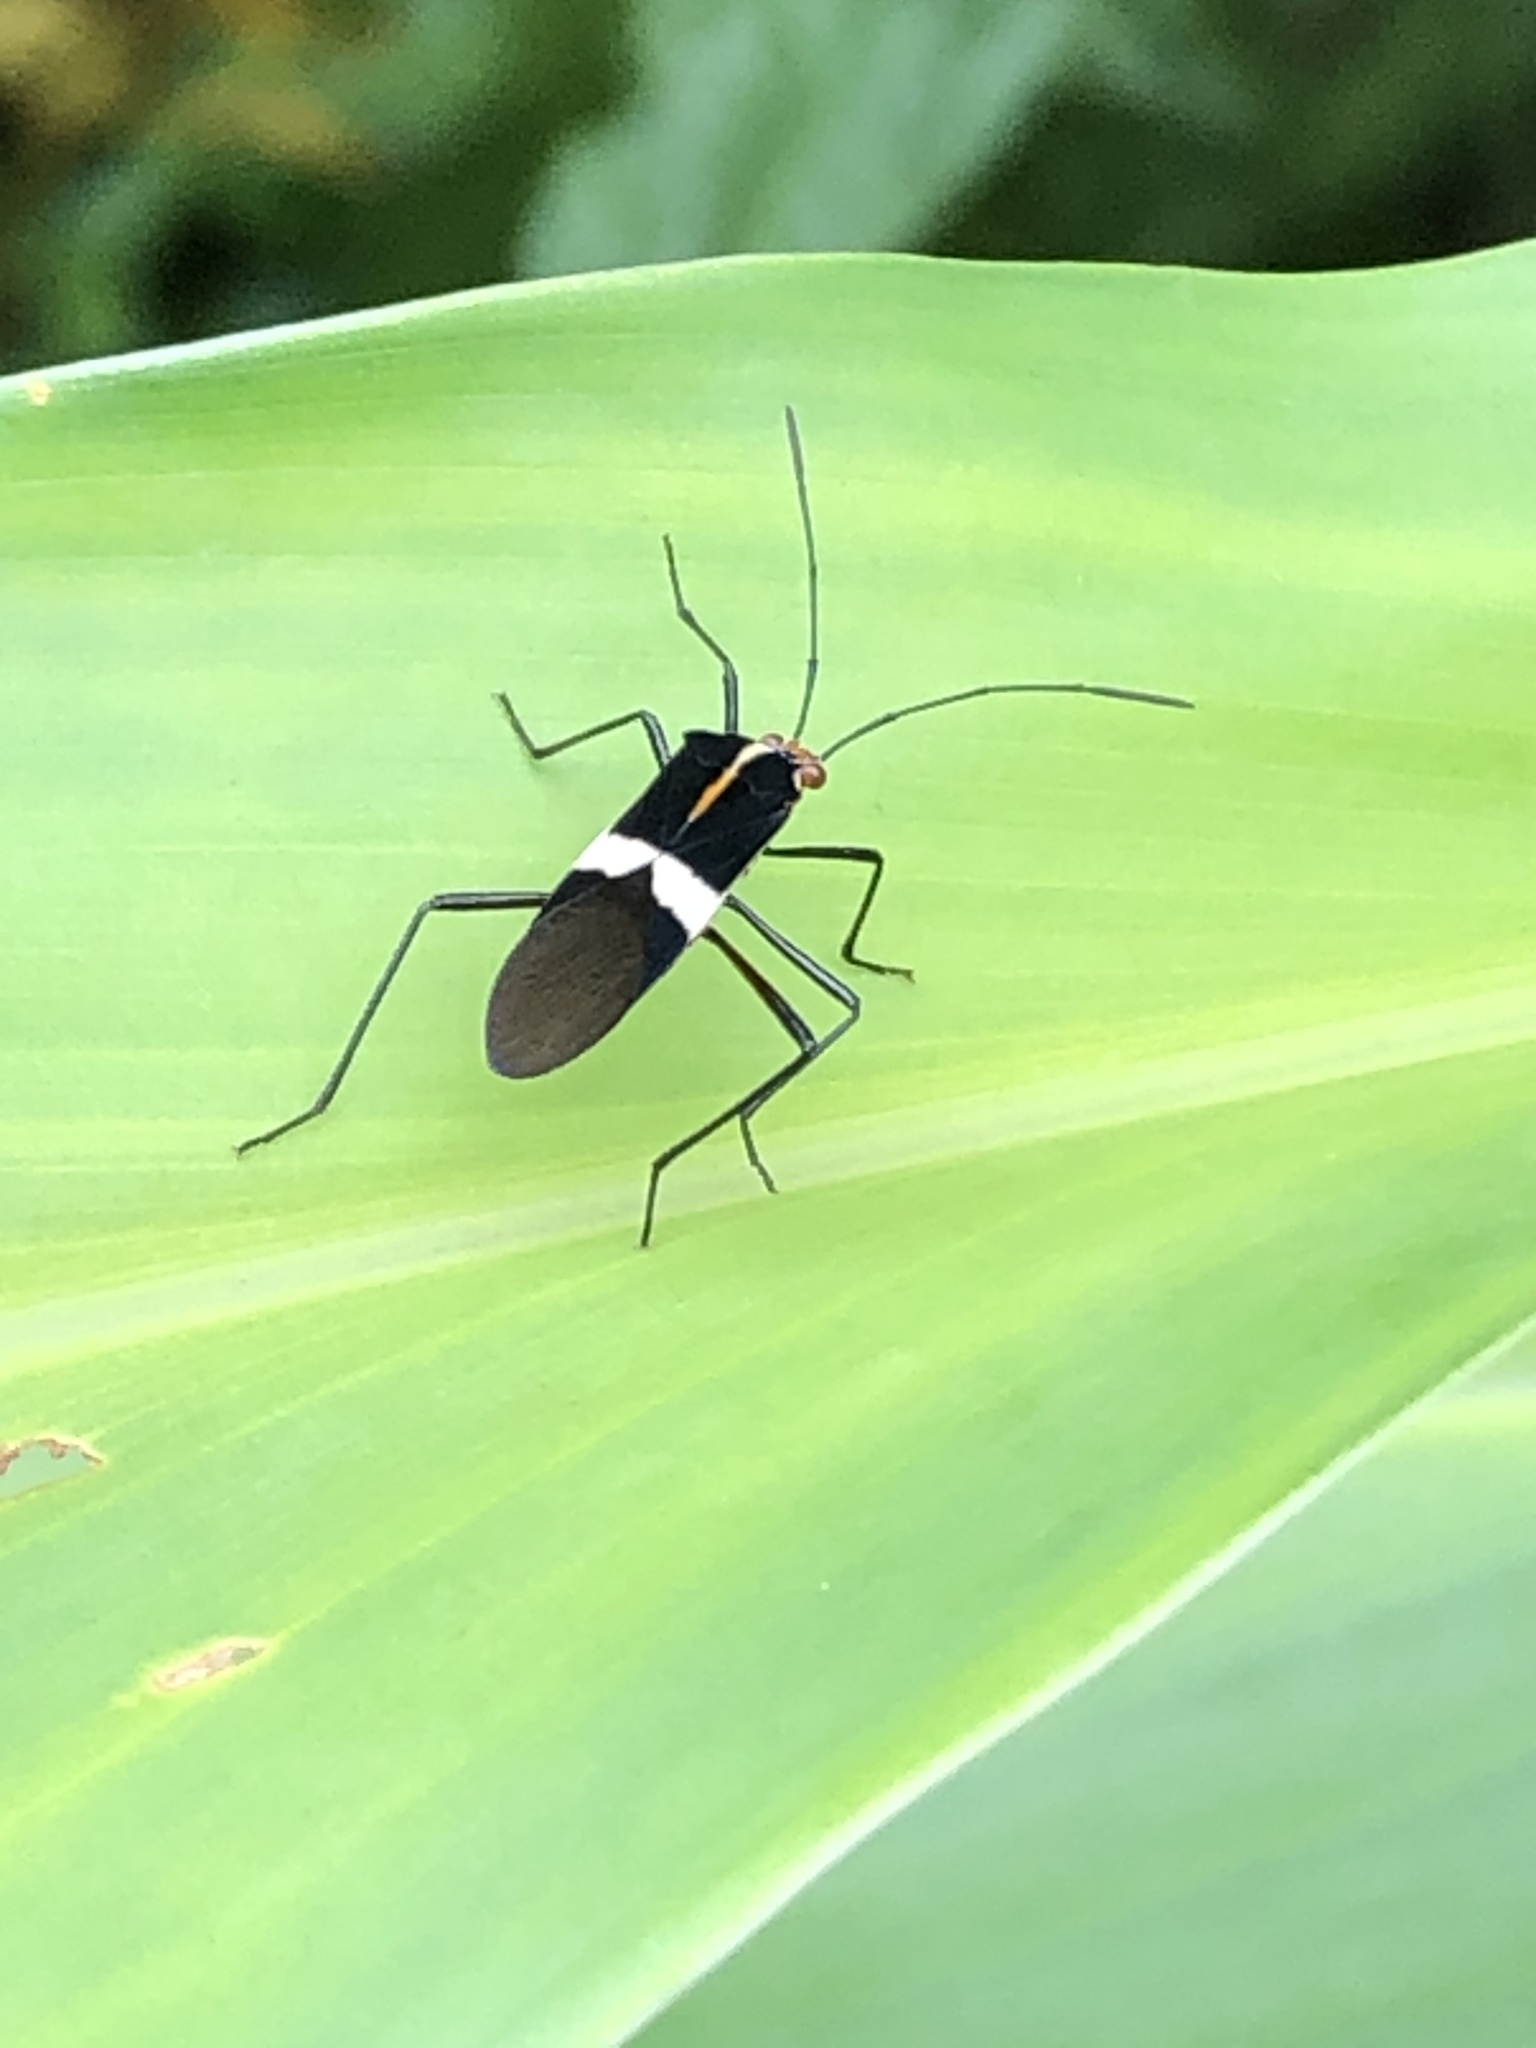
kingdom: Animalia
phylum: Arthropoda
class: Insecta
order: Hemiptera
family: Coreidae
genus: Hypselonotus
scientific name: Hypselonotus interruptus
